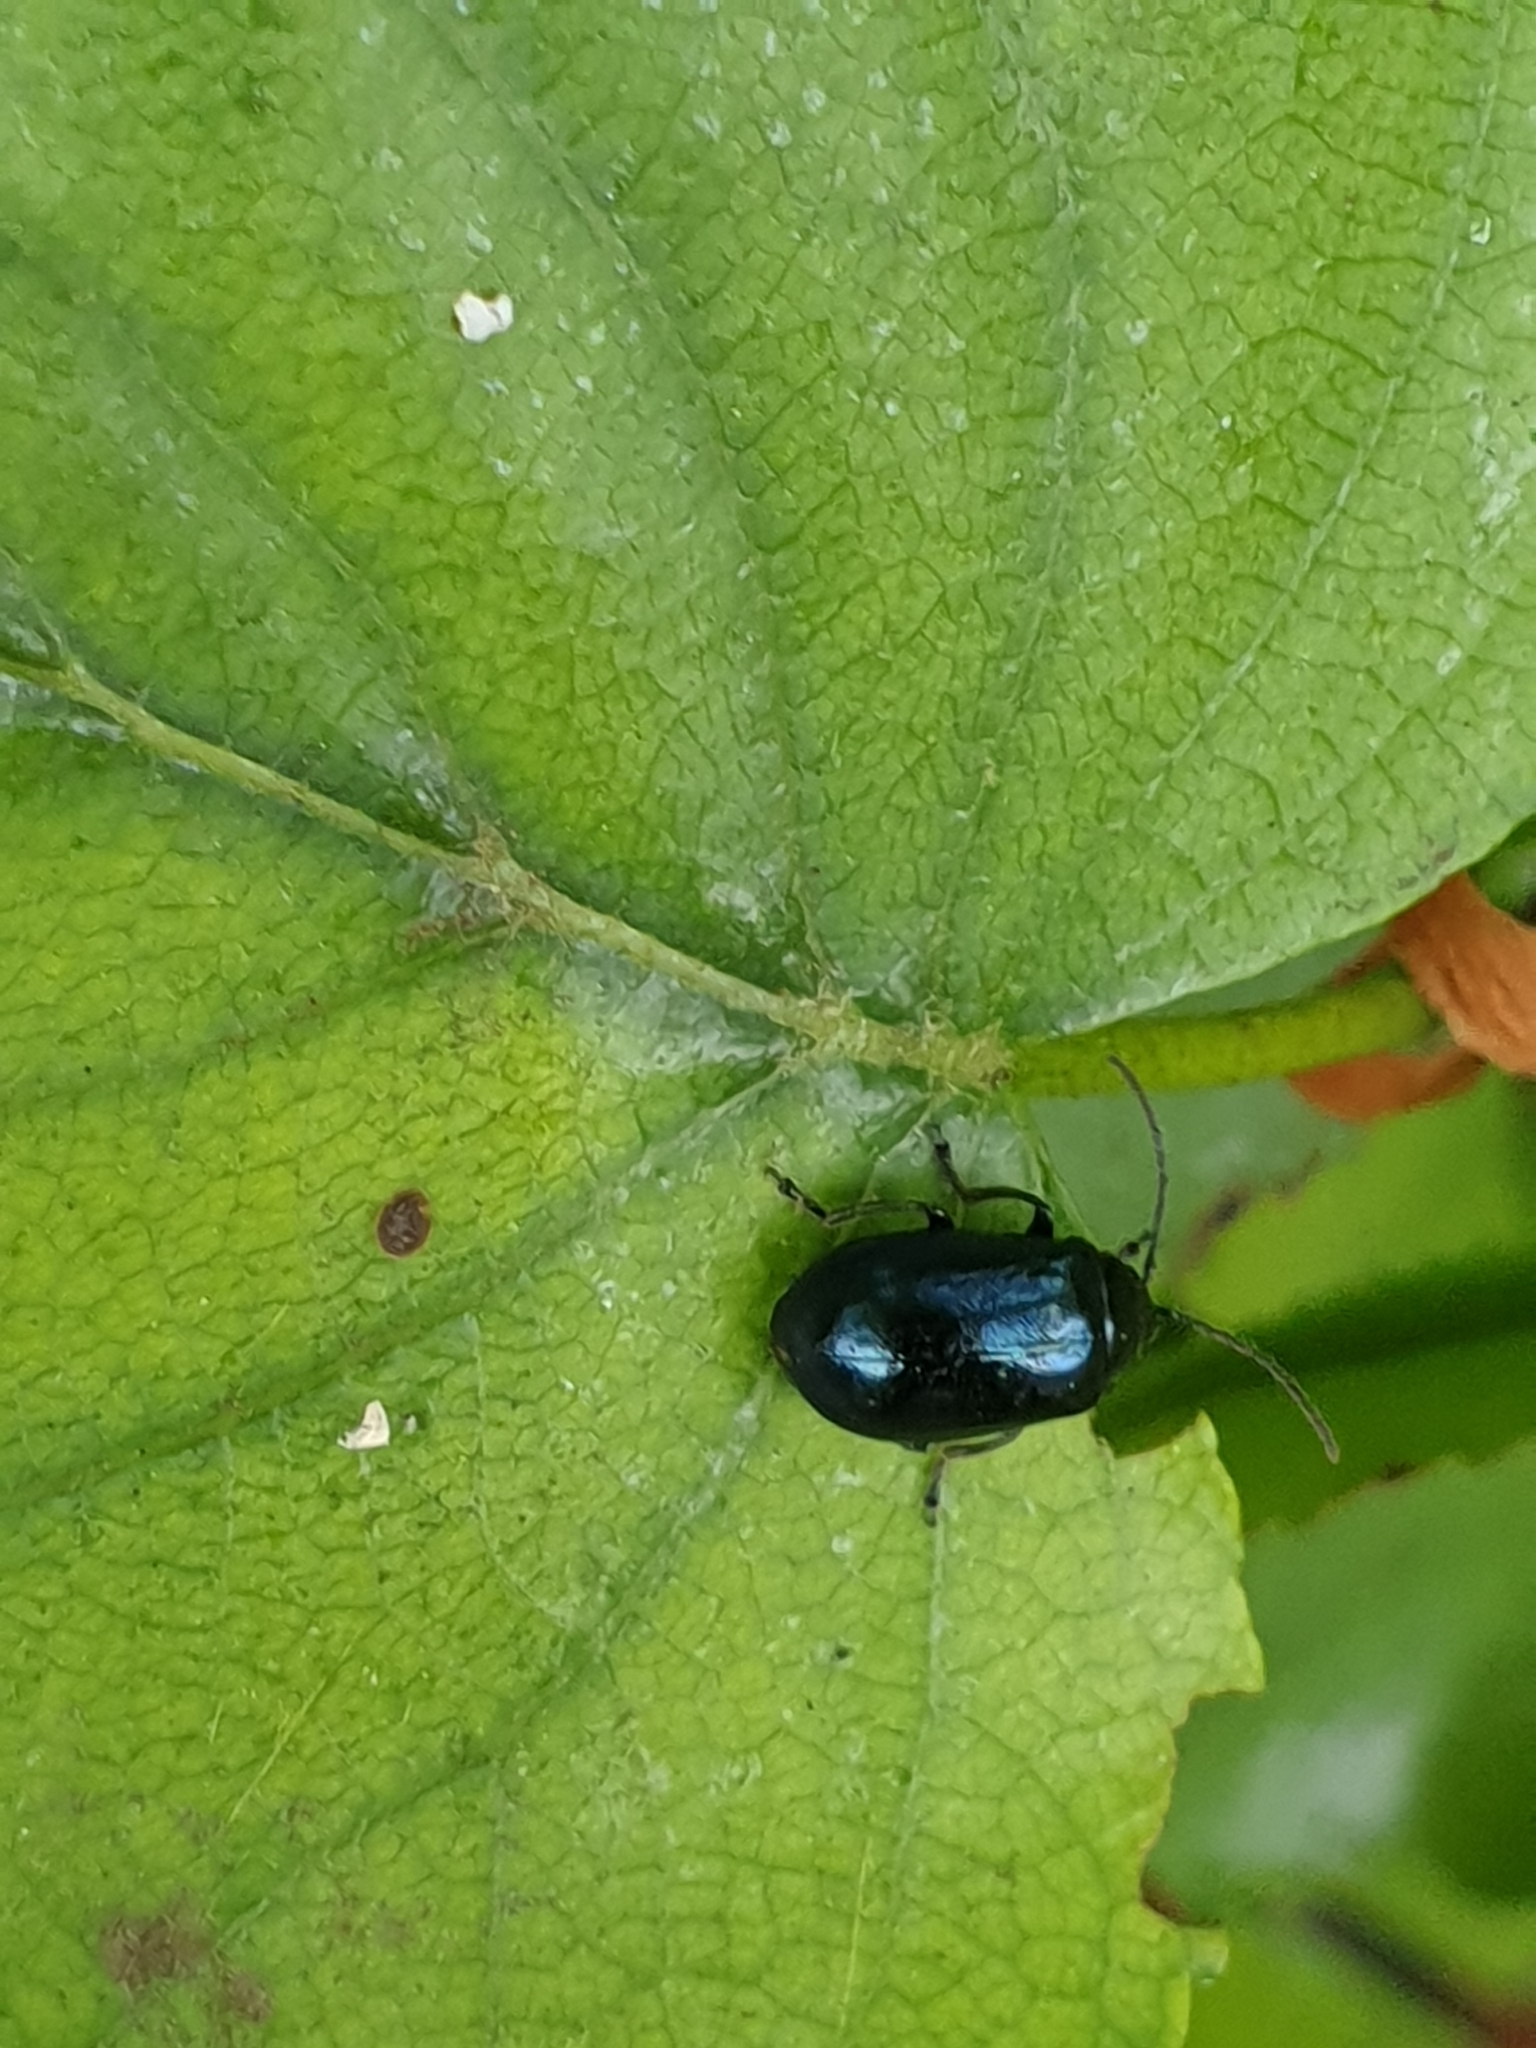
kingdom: Animalia
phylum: Arthropoda
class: Insecta
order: Coleoptera
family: Chrysomelidae
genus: Agelastica
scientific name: Agelastica alni
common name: Alder leaf beetle
